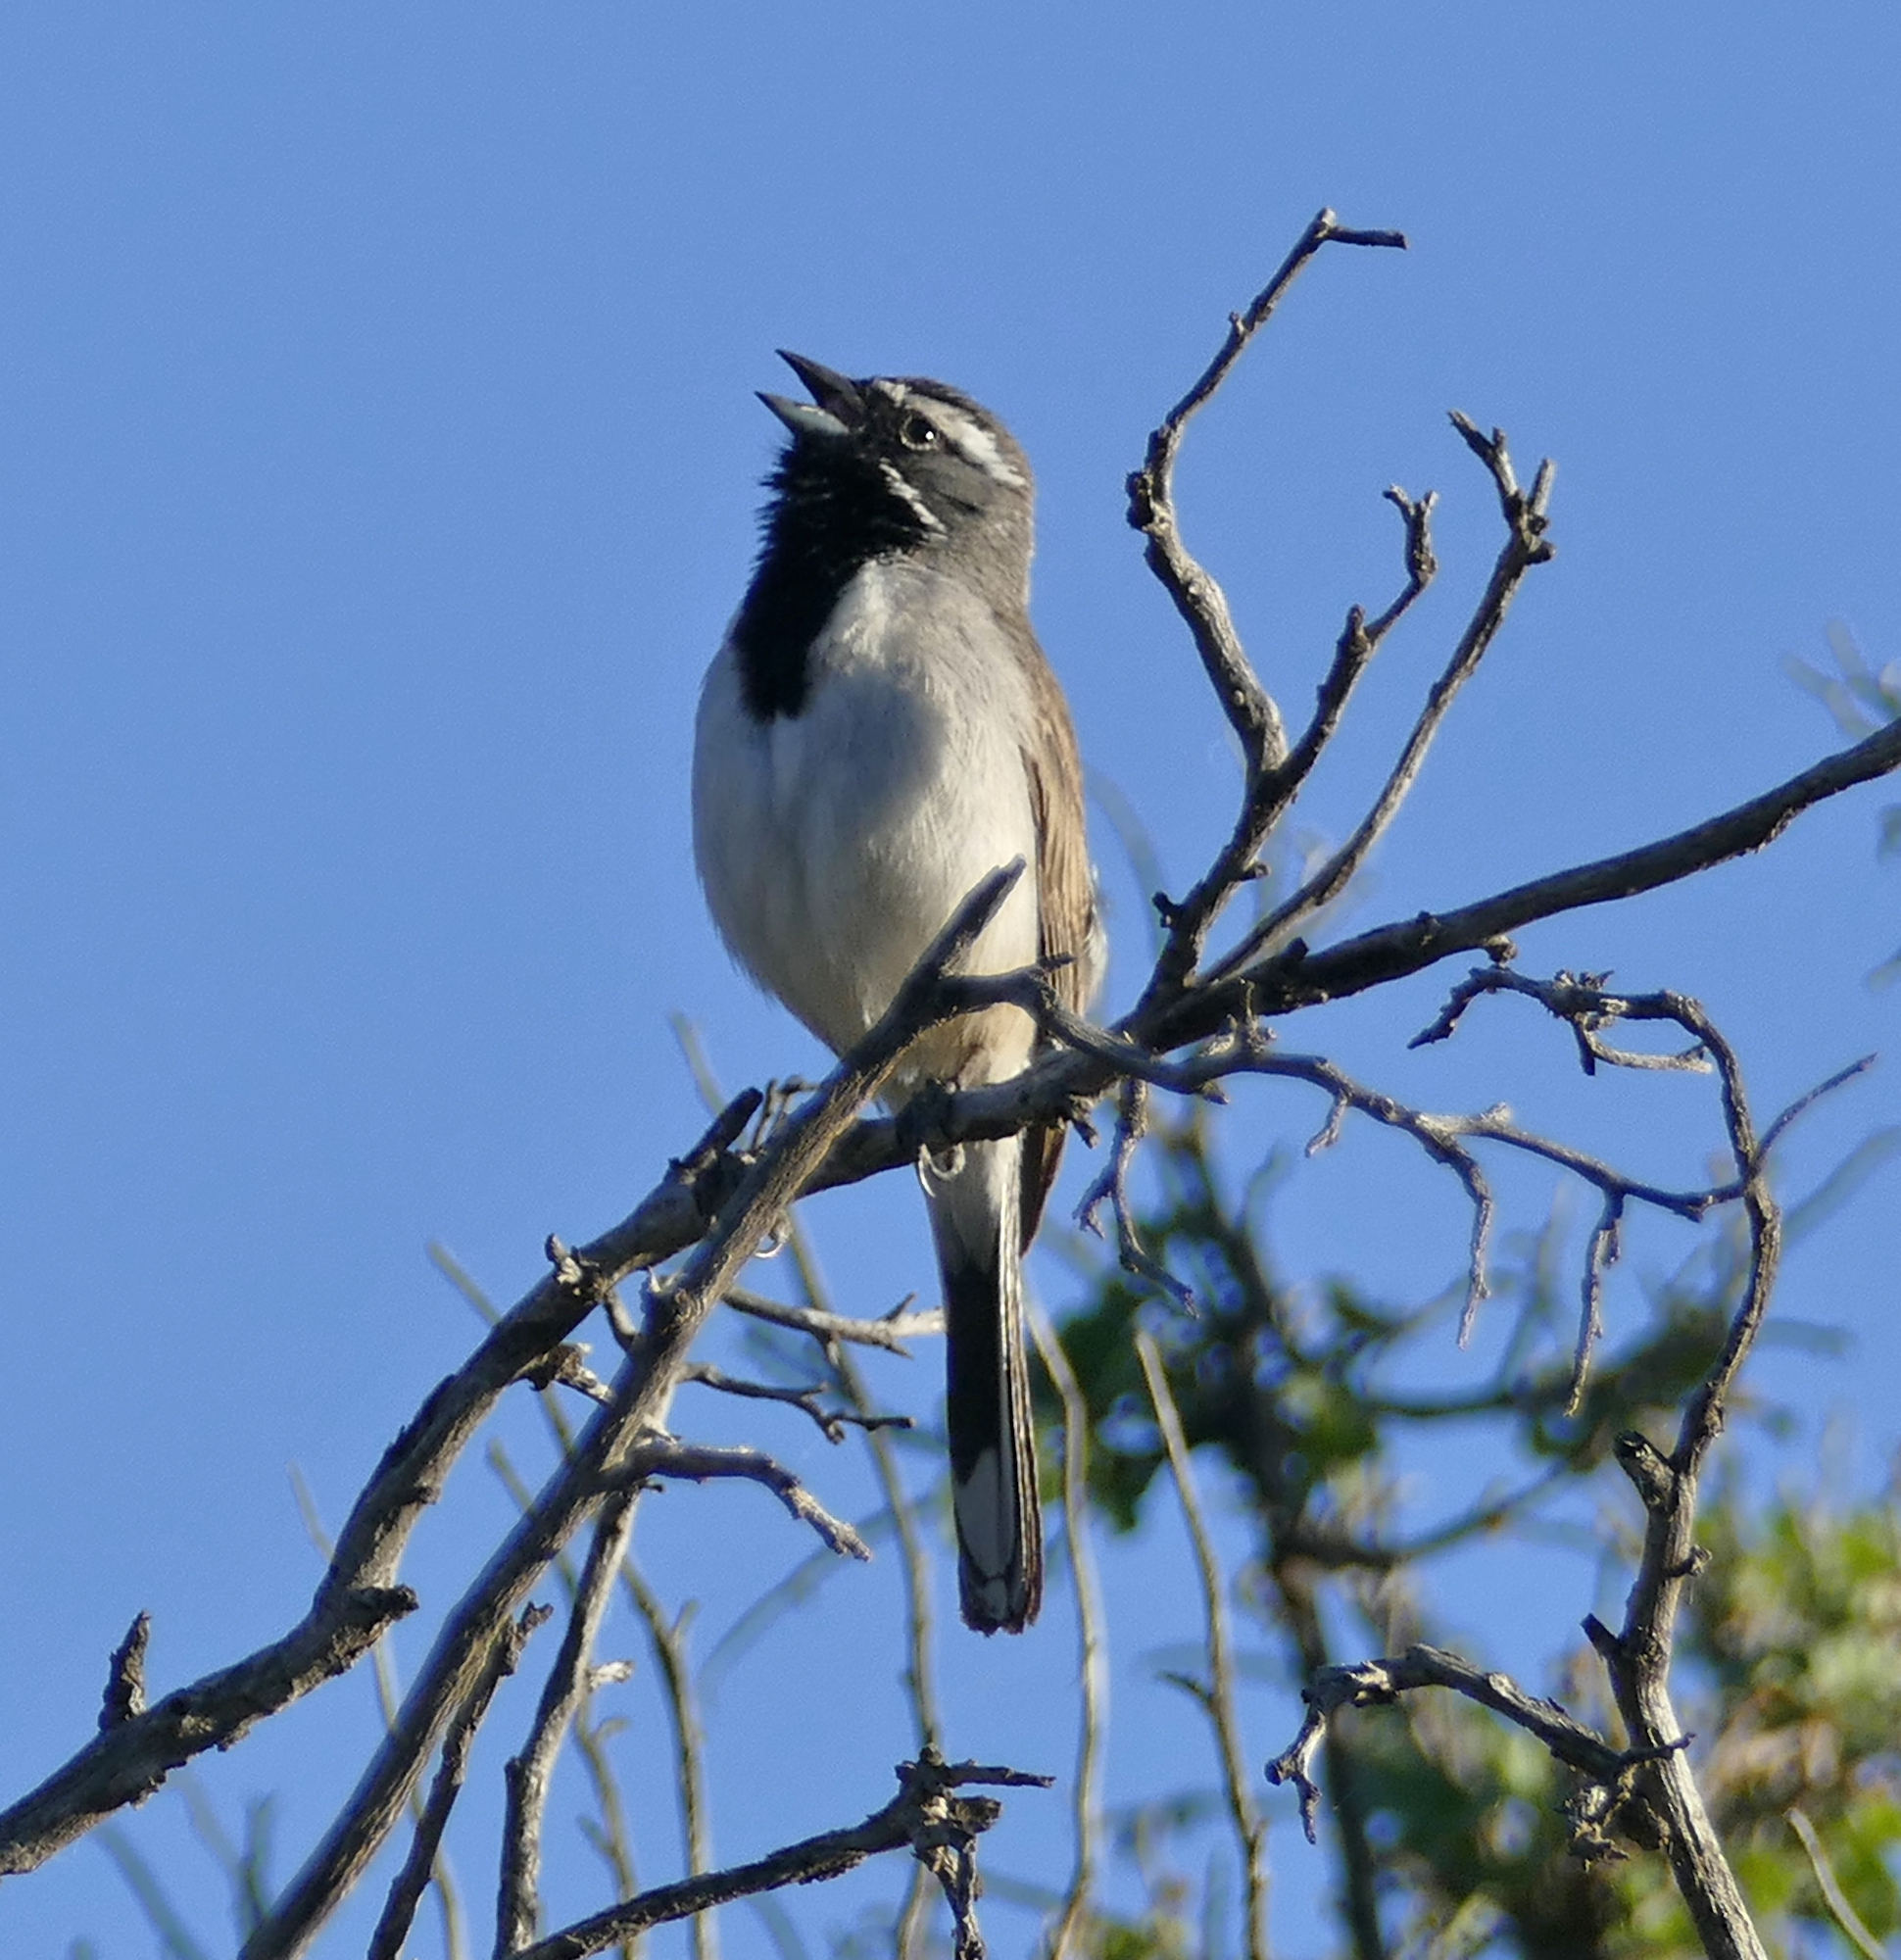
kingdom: Animalia
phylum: Chordata
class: Aves
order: Passeriformes
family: Passerellidae
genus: Amphispiza
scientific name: Amphispiza bilineata
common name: Black-throated sparrow
